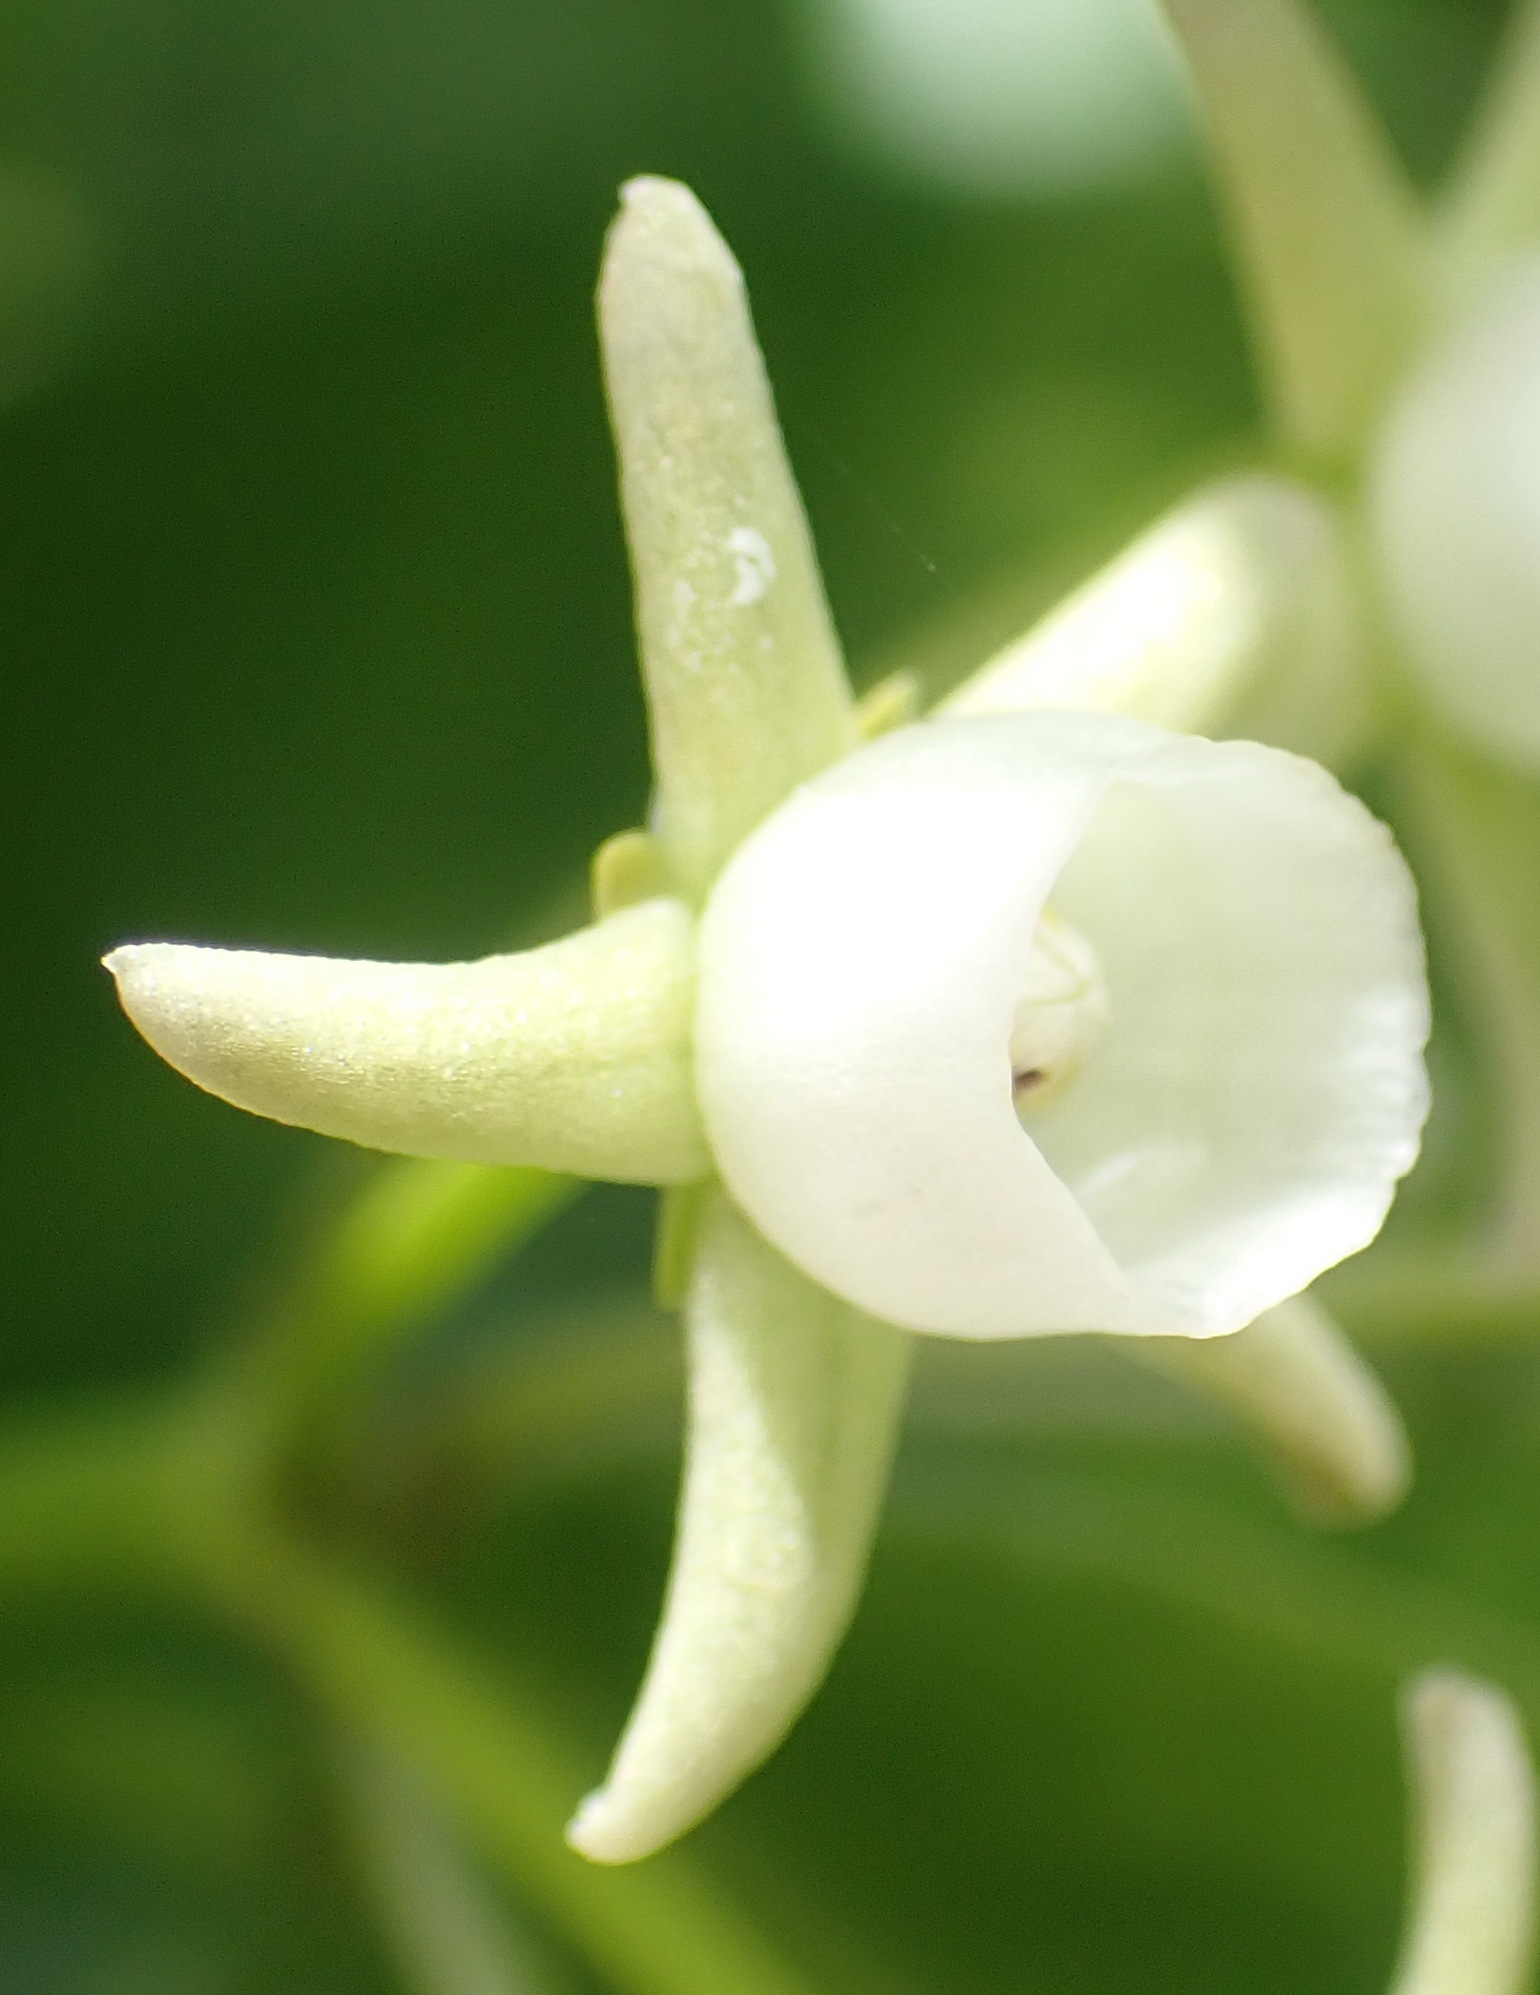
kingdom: Plantae
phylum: Tracheophyta
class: Magnoliopsida
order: Gentianales
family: Apocynaceae
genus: Cynanchum
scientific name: Cynanchum ellipticum
